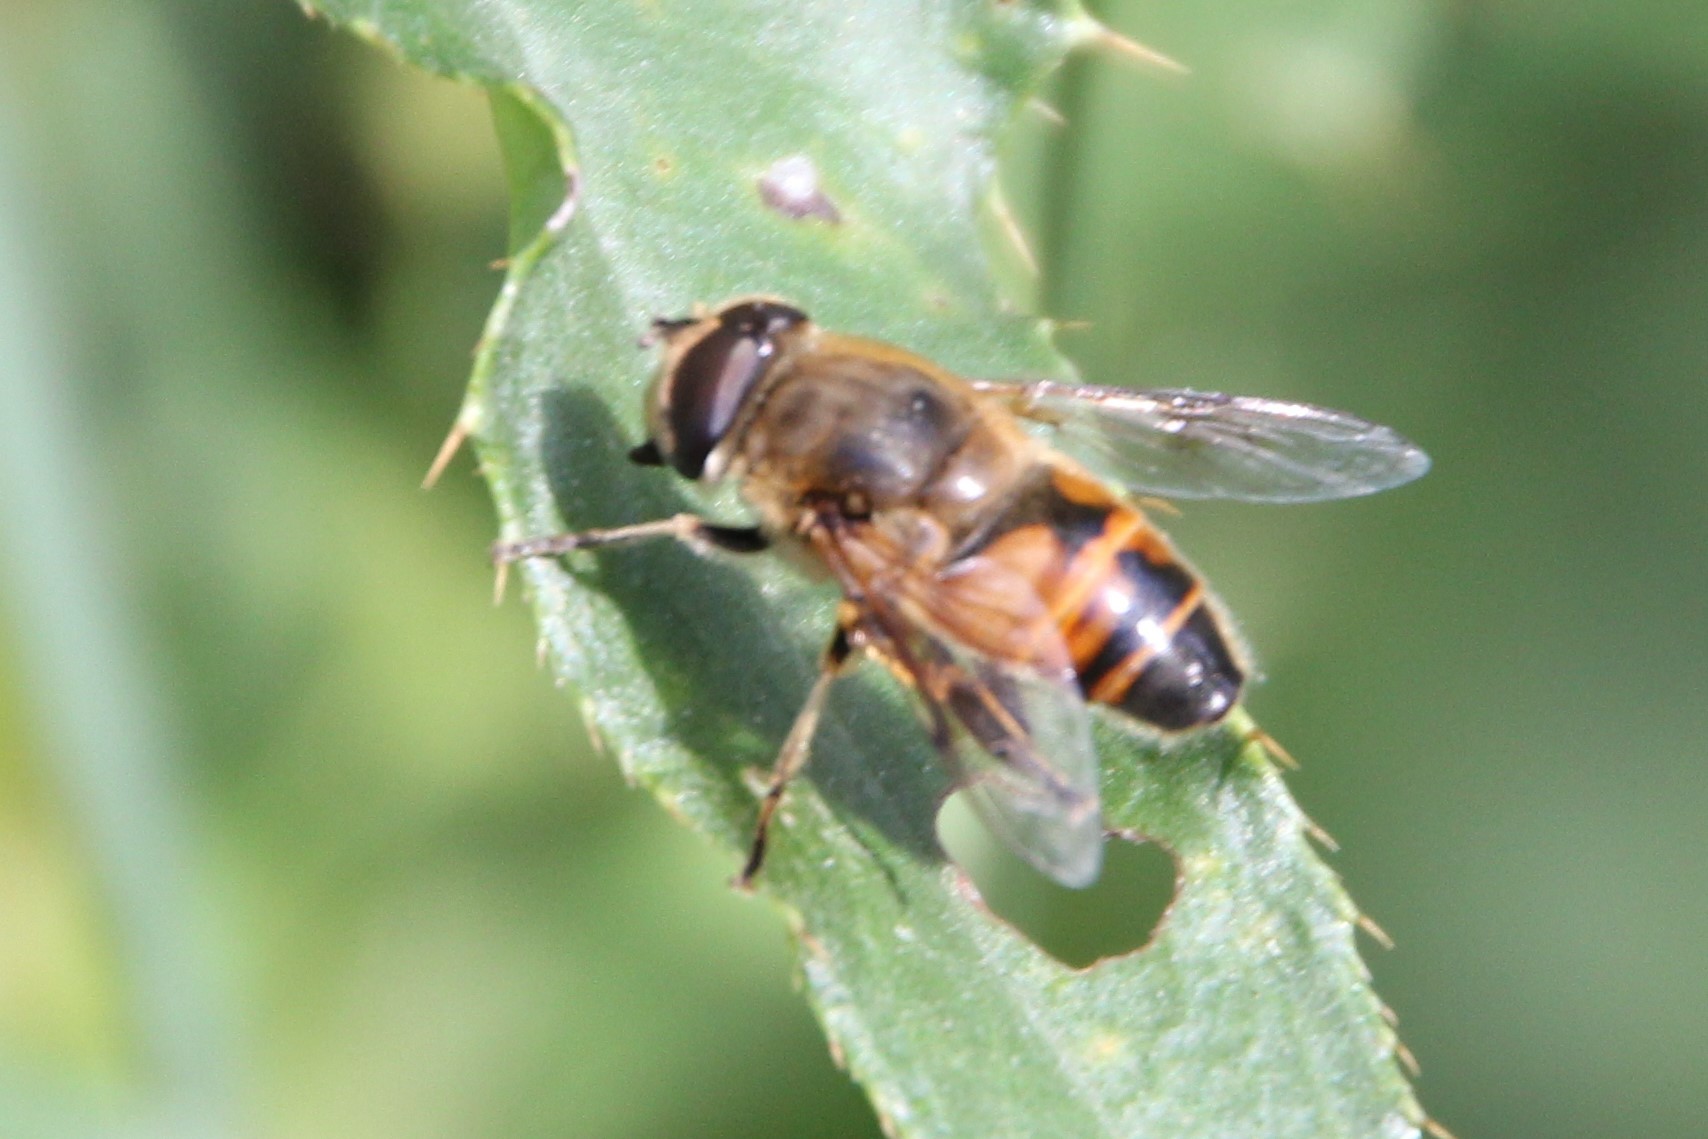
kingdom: Animalia
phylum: Arthropoda
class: Insecta
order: Diptera
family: Syrphidae
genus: Eristalis
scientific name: Eristalis tenax
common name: Drone fly
